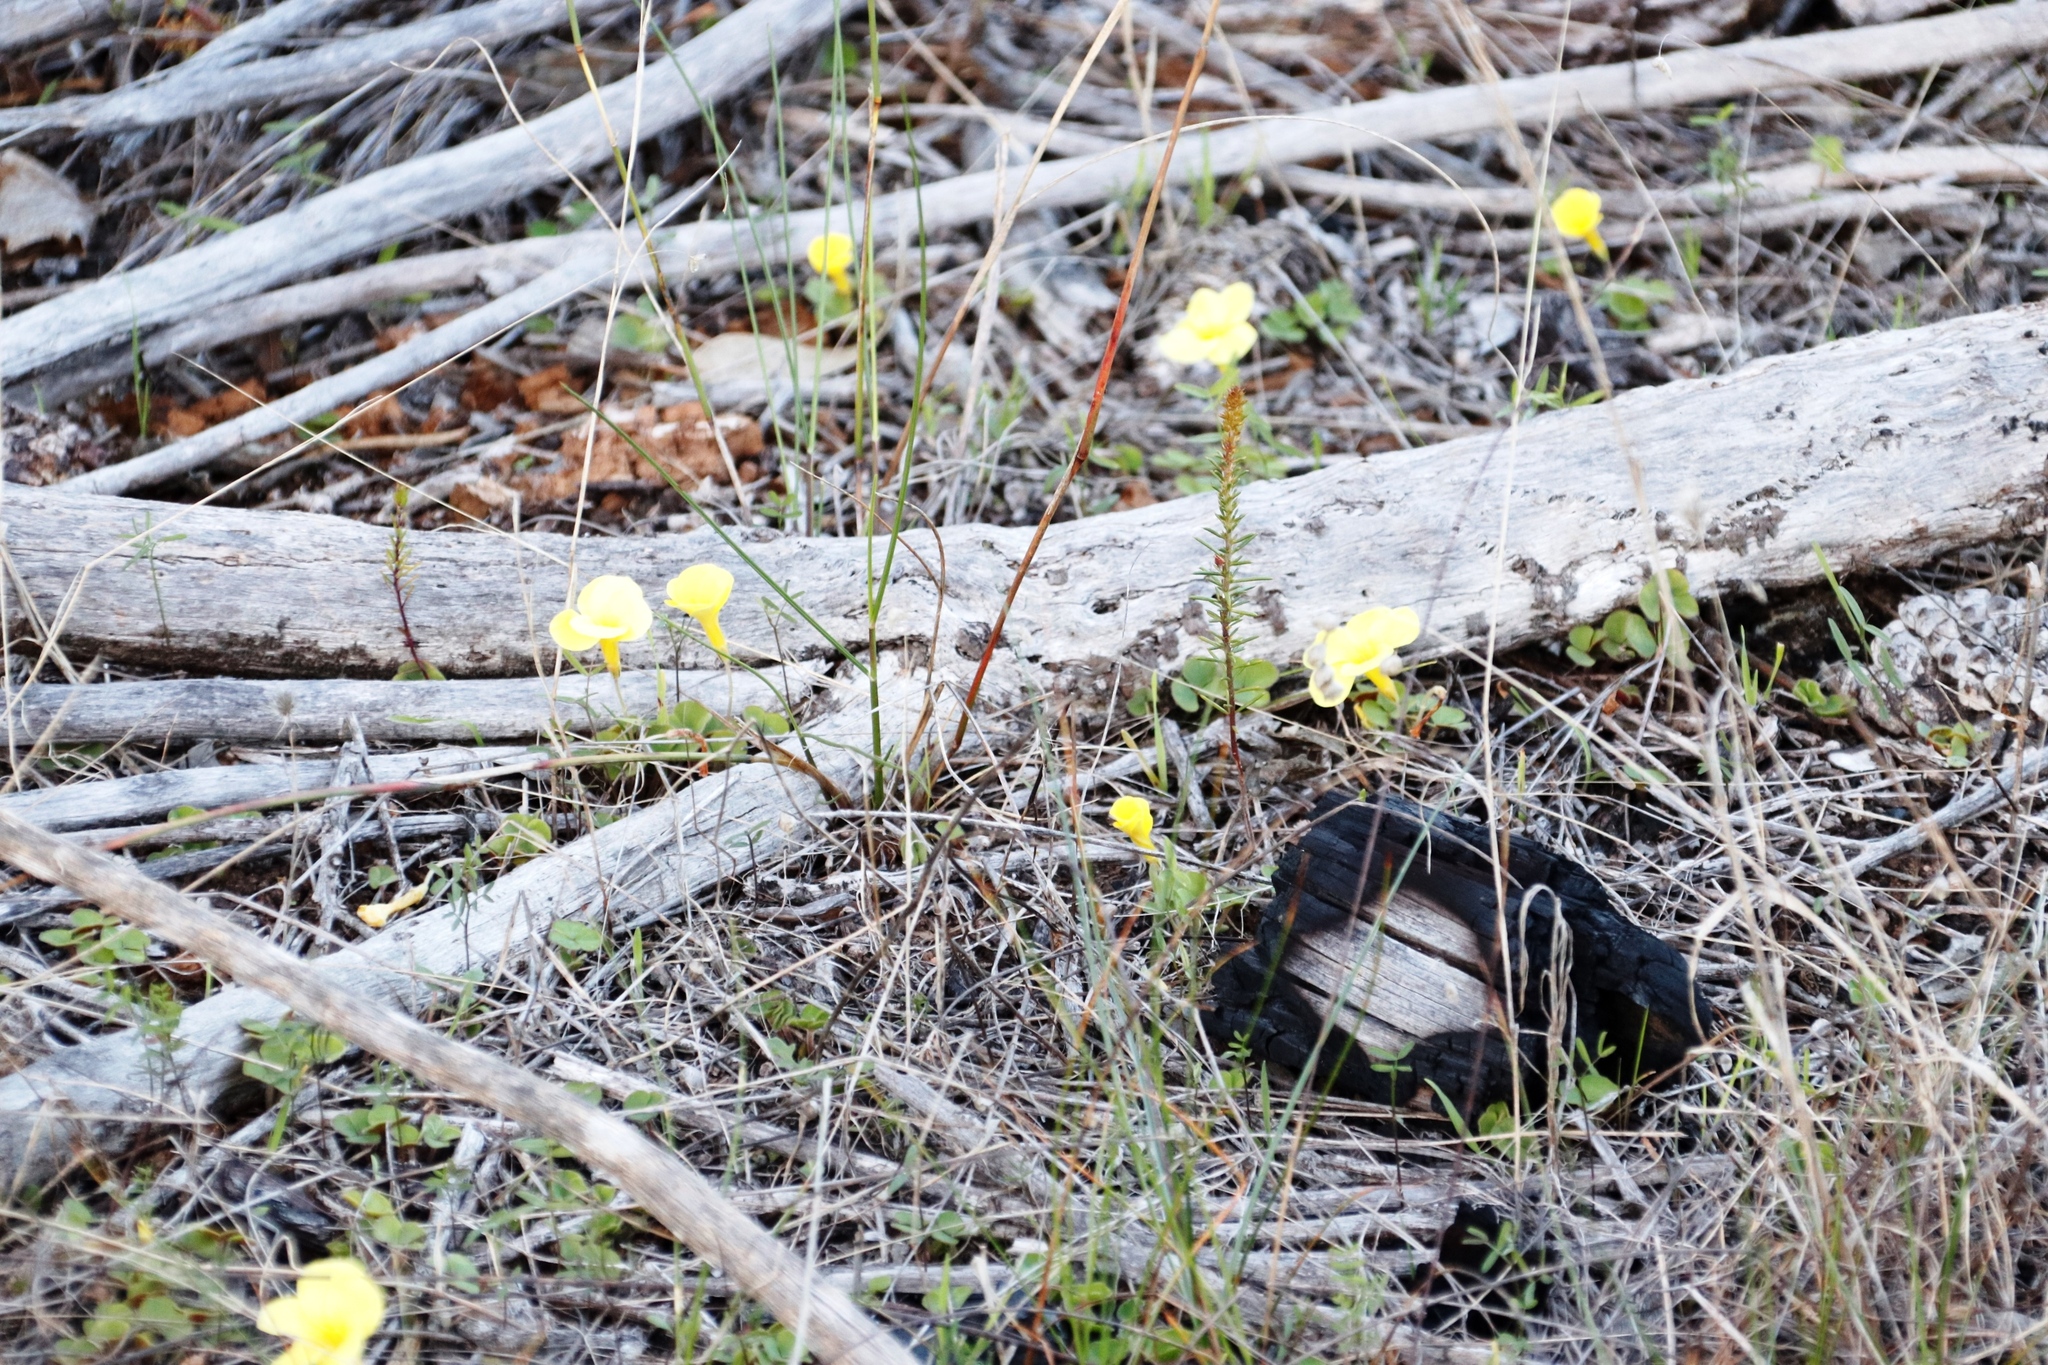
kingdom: Plantae
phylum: Tracheophyta
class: Magnoliopsida
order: Oxalidales
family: Oxalidaceae
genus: Oxalis
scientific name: Oxalis luteola
